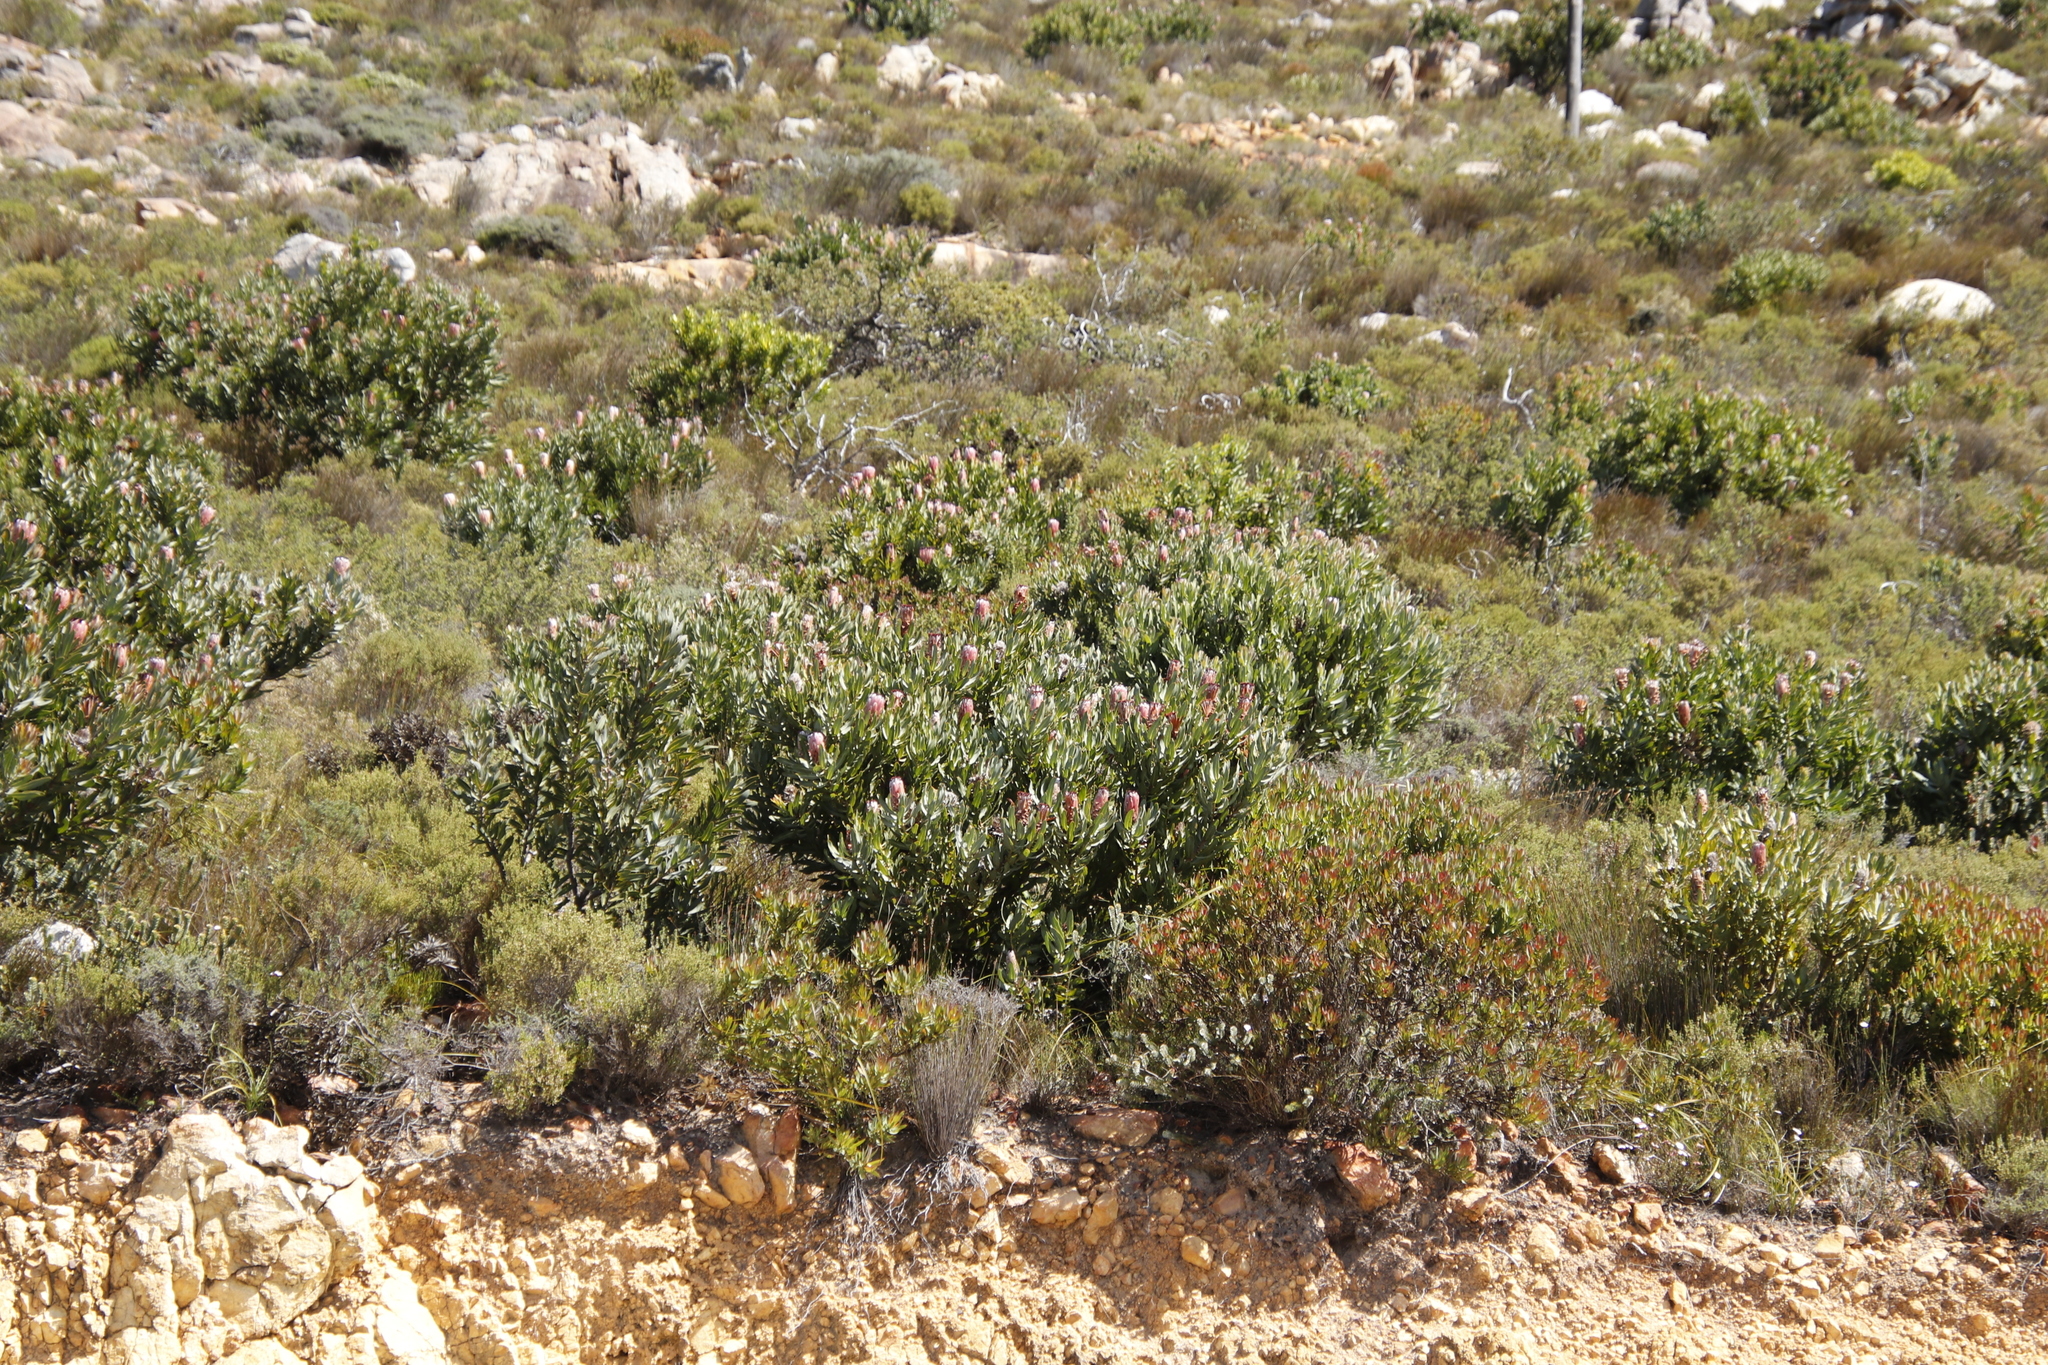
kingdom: Plantae
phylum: Tracheophyta
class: Magnoliopsida
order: Proteales
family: Proteaceae
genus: Protea
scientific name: Protea laurifolia
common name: Grey-leaf sugarbsh
